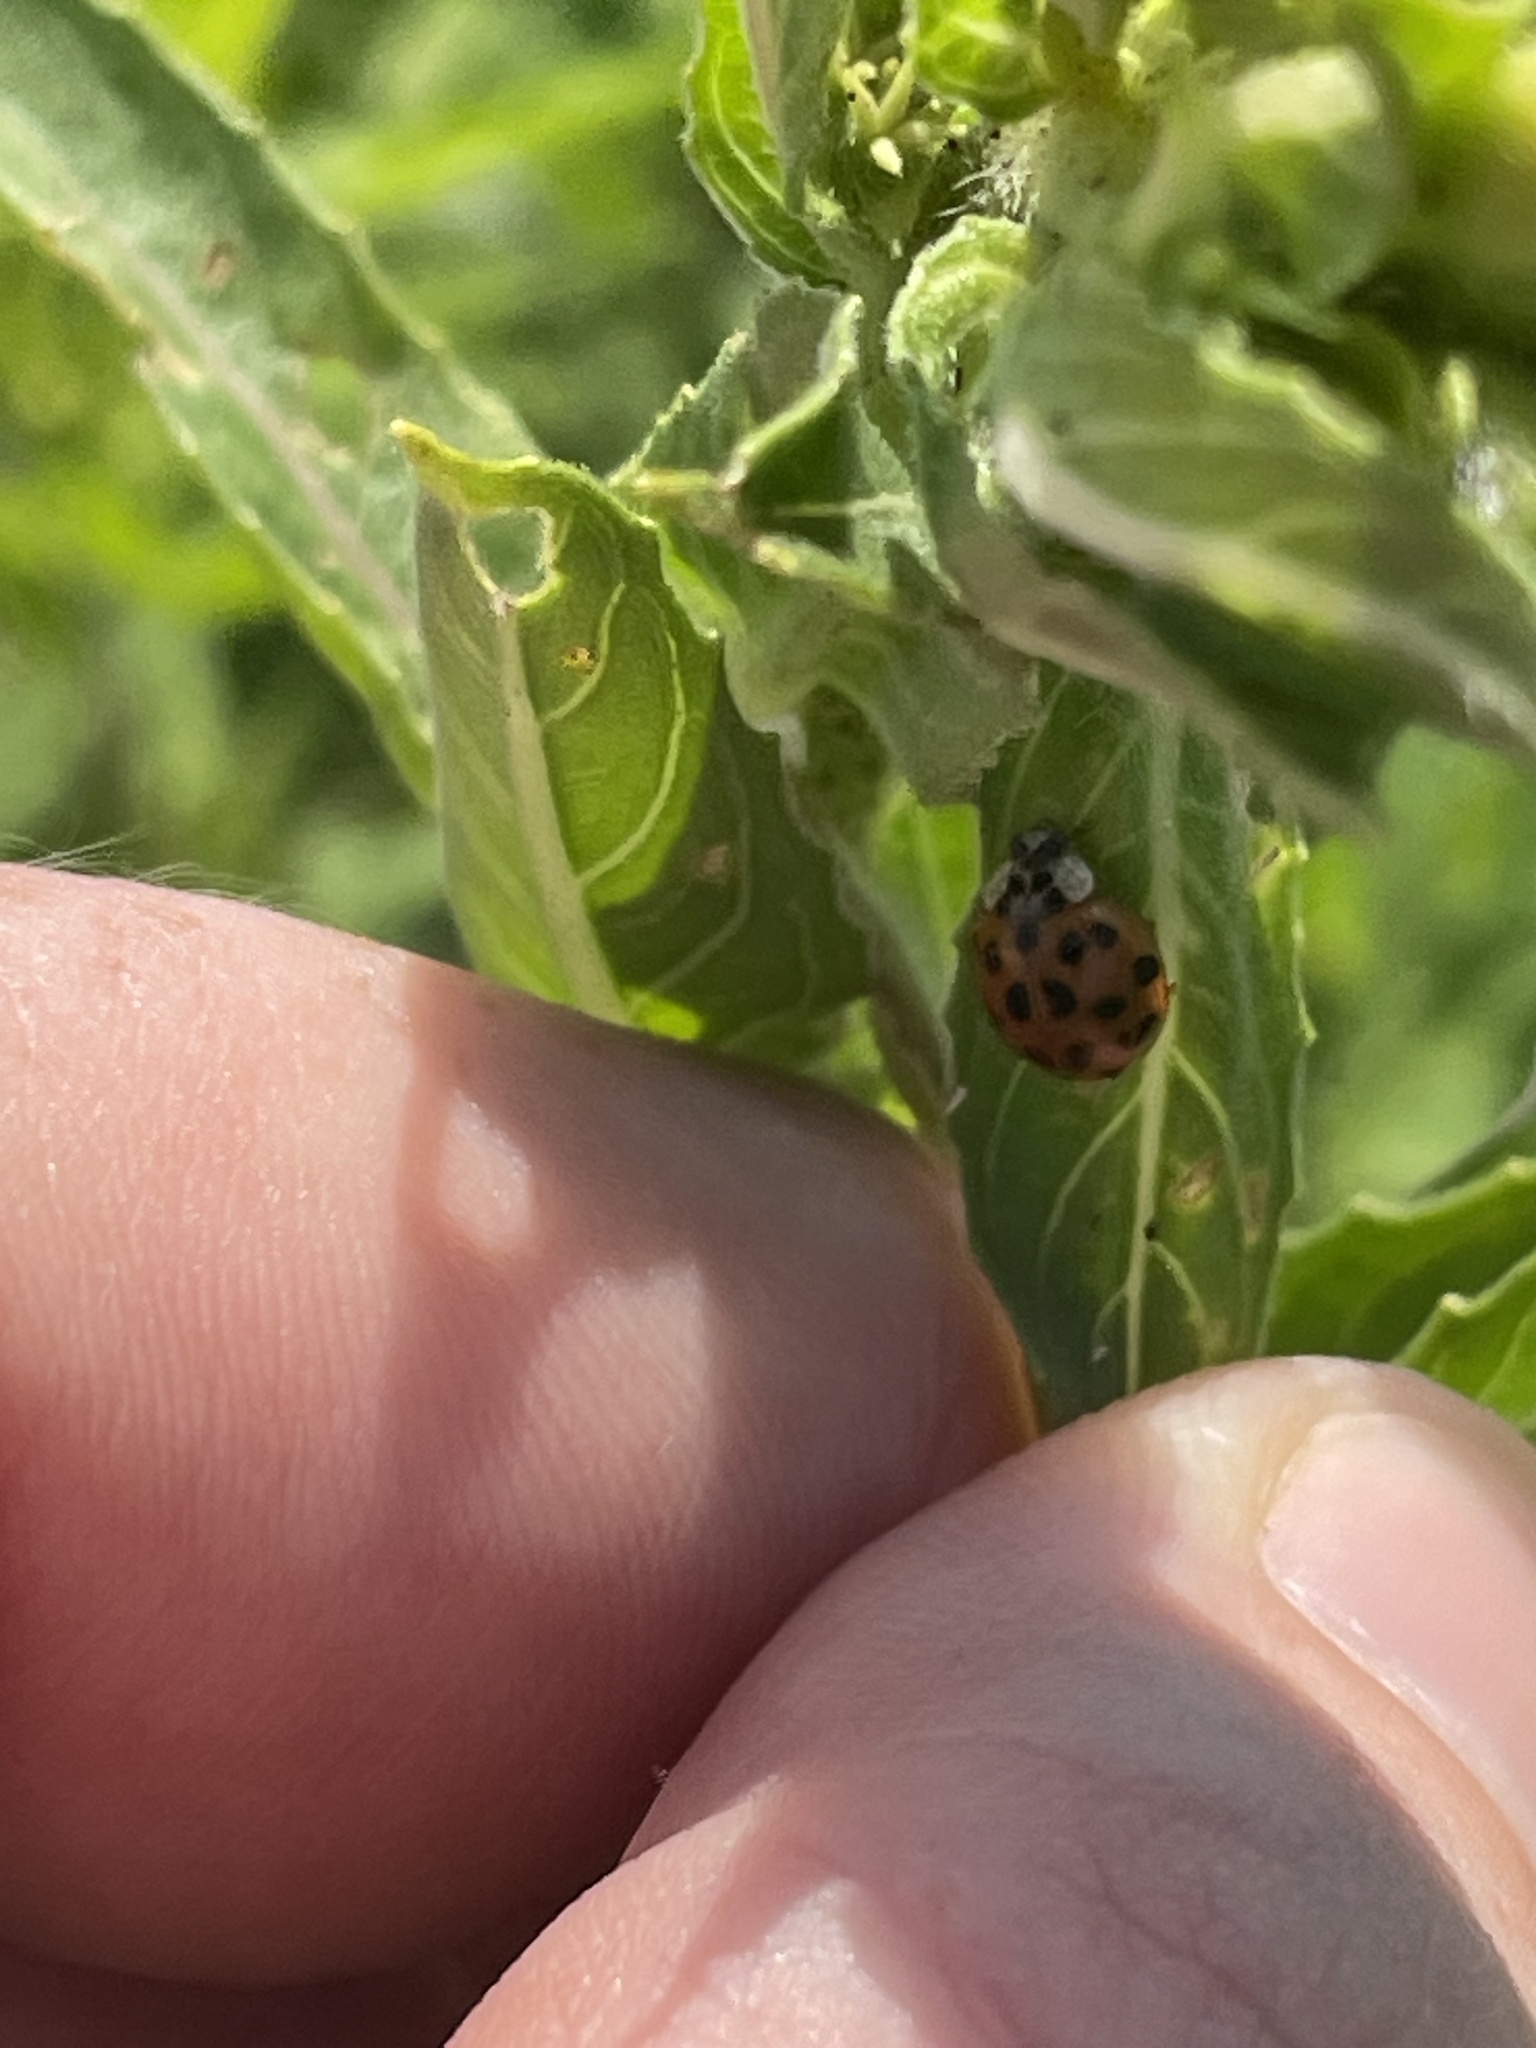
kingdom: Animalia
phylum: Arthropoda
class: Insecta
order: Coleoptera
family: Coccinellidae
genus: Harmonia
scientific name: Harmonia axyridis
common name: Harlequin ladybird
